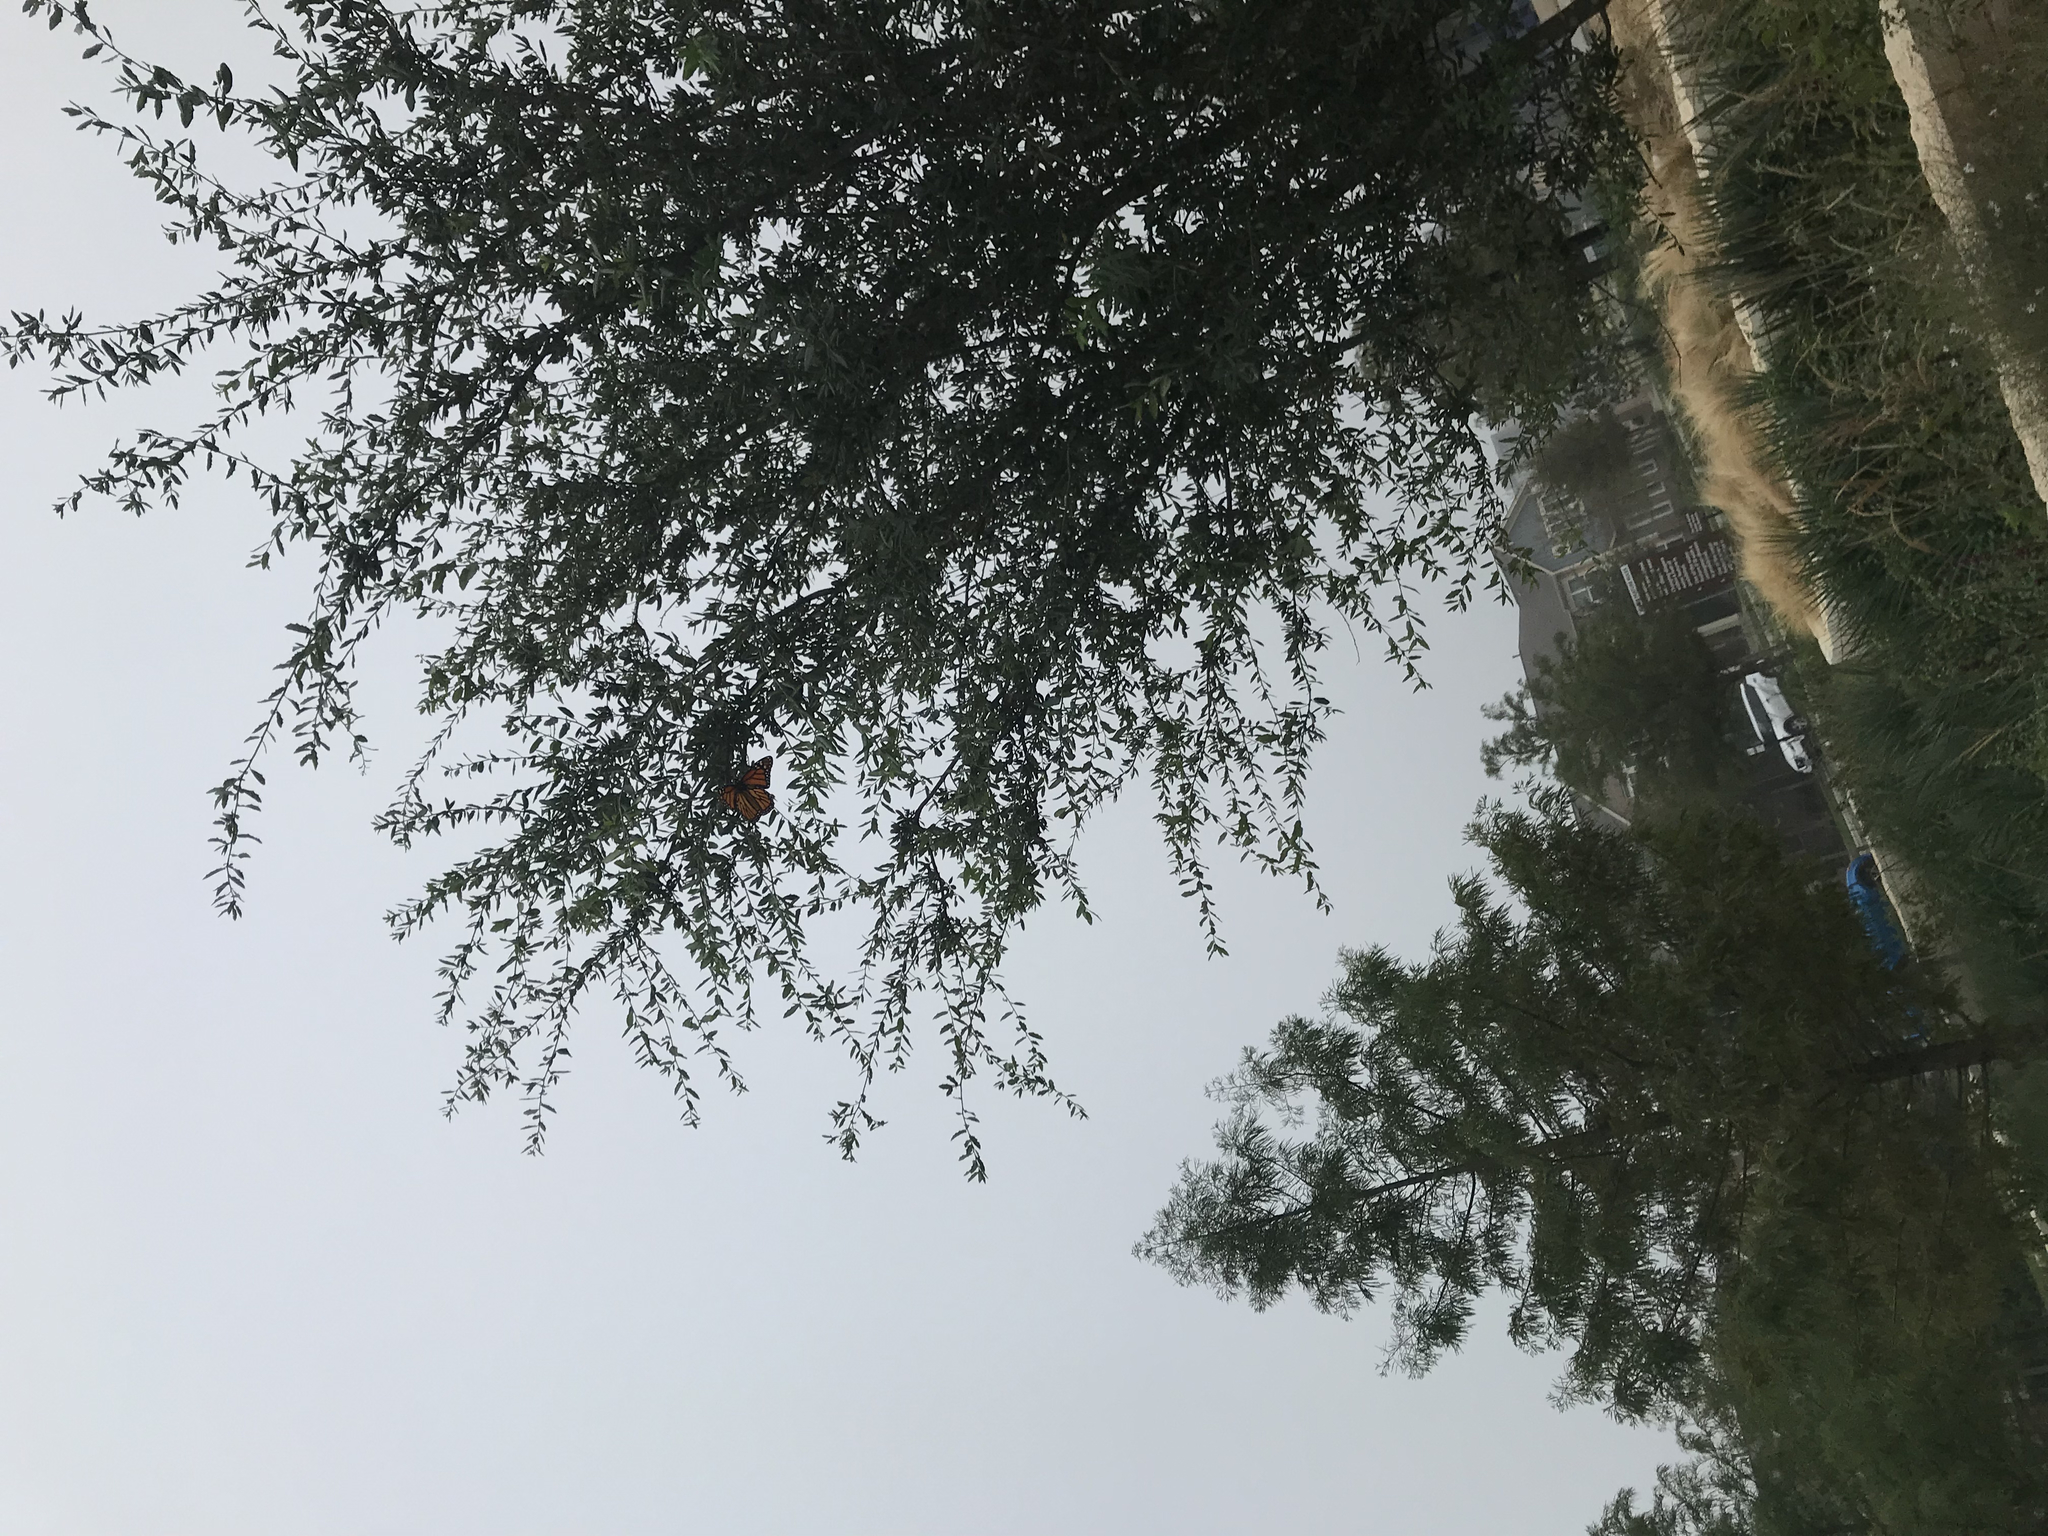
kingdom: Animalia
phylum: Arthropoda
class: Insecta
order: Lepidoptera
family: Nymphalidae
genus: Danaus
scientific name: Danaus plexippus
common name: Monarch
